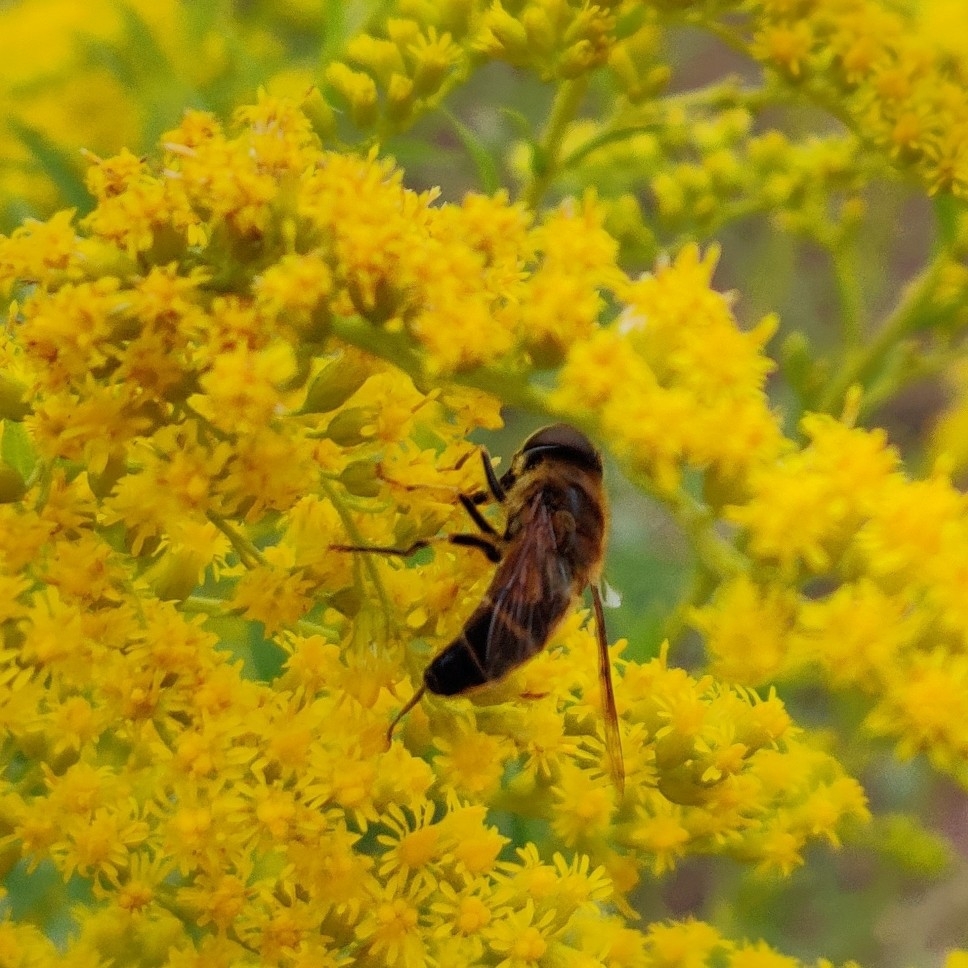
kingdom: Animalia
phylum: Arthropoda
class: Insecta
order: Diptera
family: Syrphidae
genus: Eristalis
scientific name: Eristalis pertinax
